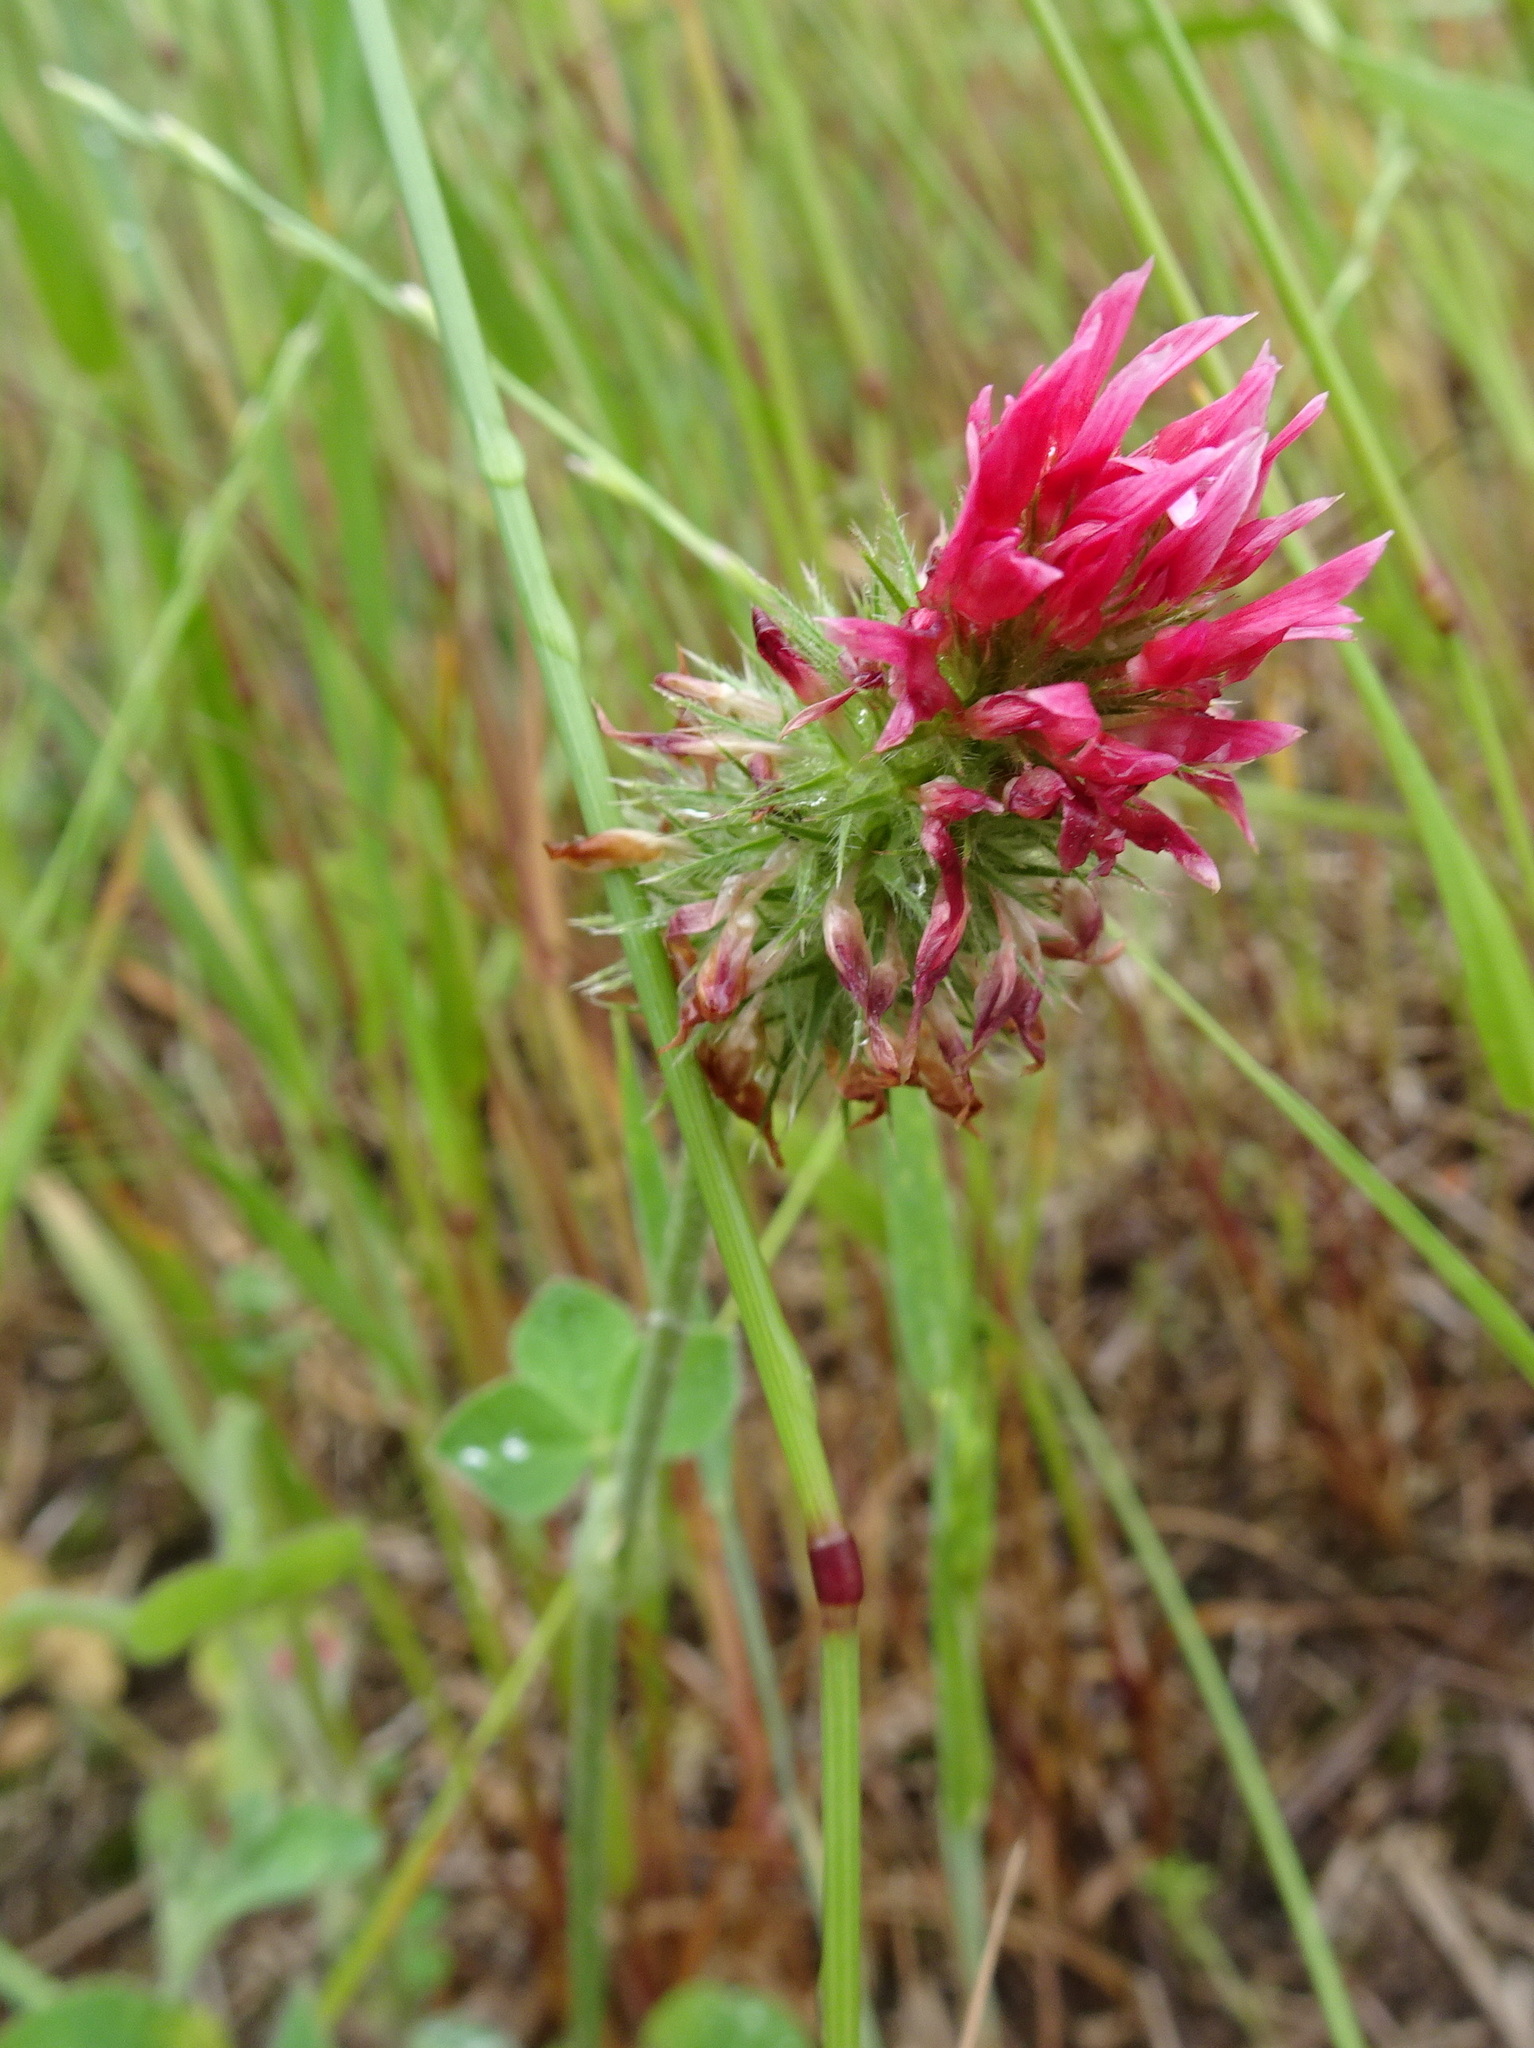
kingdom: Plantae
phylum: Tracheophyta
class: Magnoliopsida
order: Fabales
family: Fabaceae
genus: Trifolium
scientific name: Trifolium incarnatum
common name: Crimson clover
